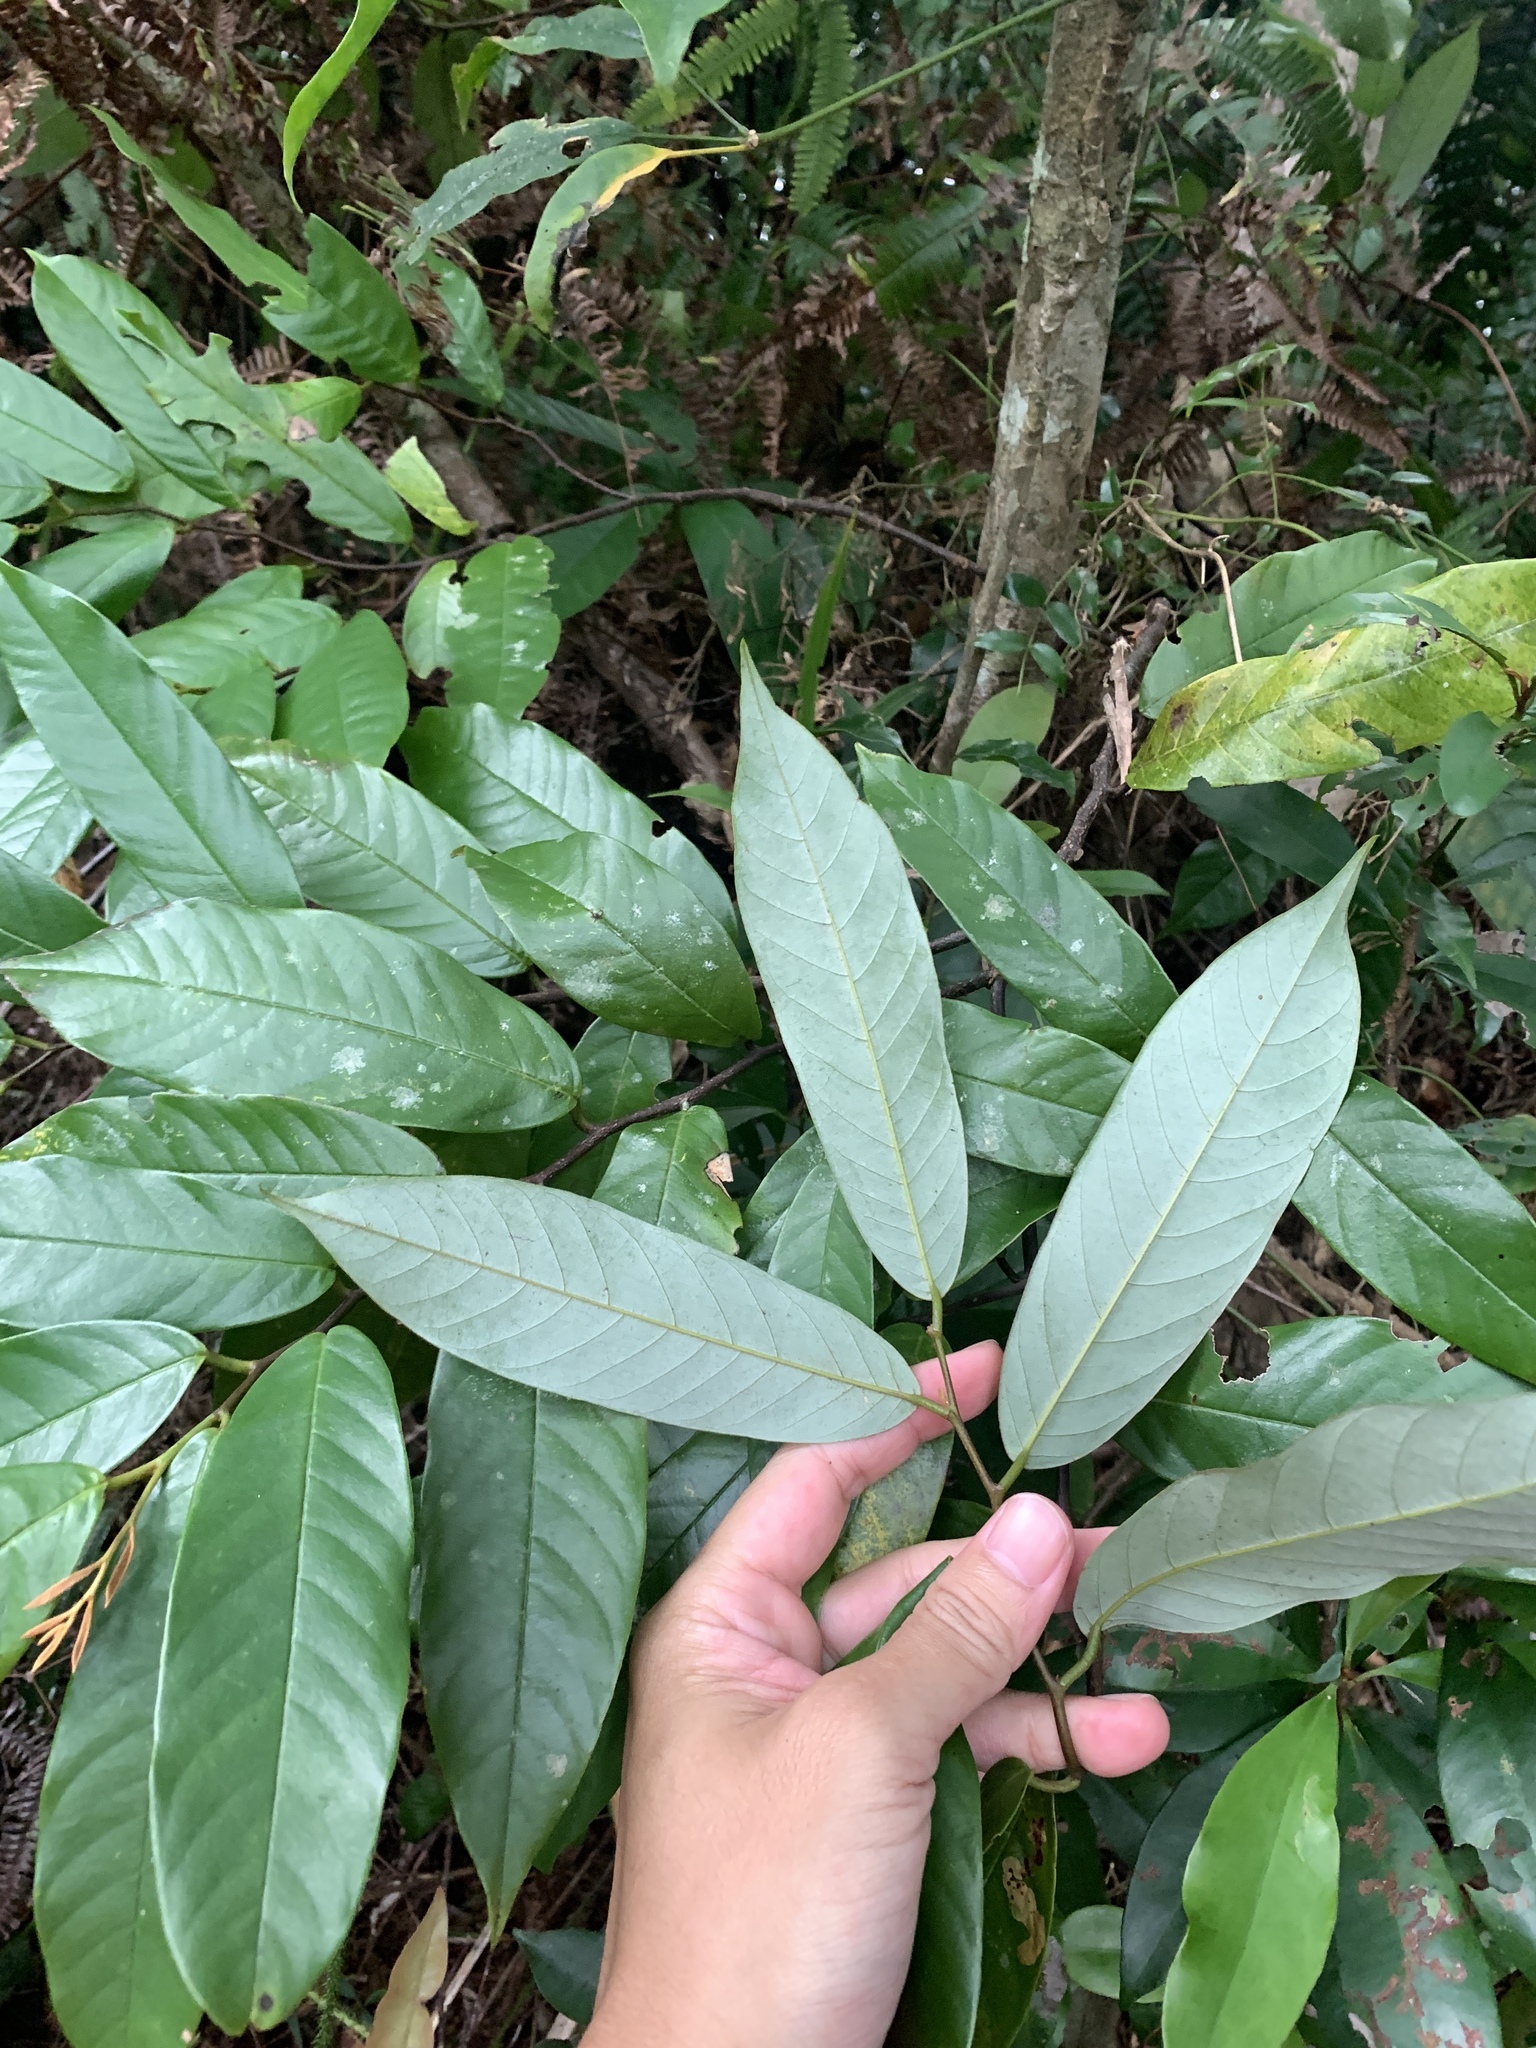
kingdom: Plantae
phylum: Tracheophyta
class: Magnoliopsida
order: Magnoliales
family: Annonaceae
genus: Fissistigma
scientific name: Fissistigma glaucescens
